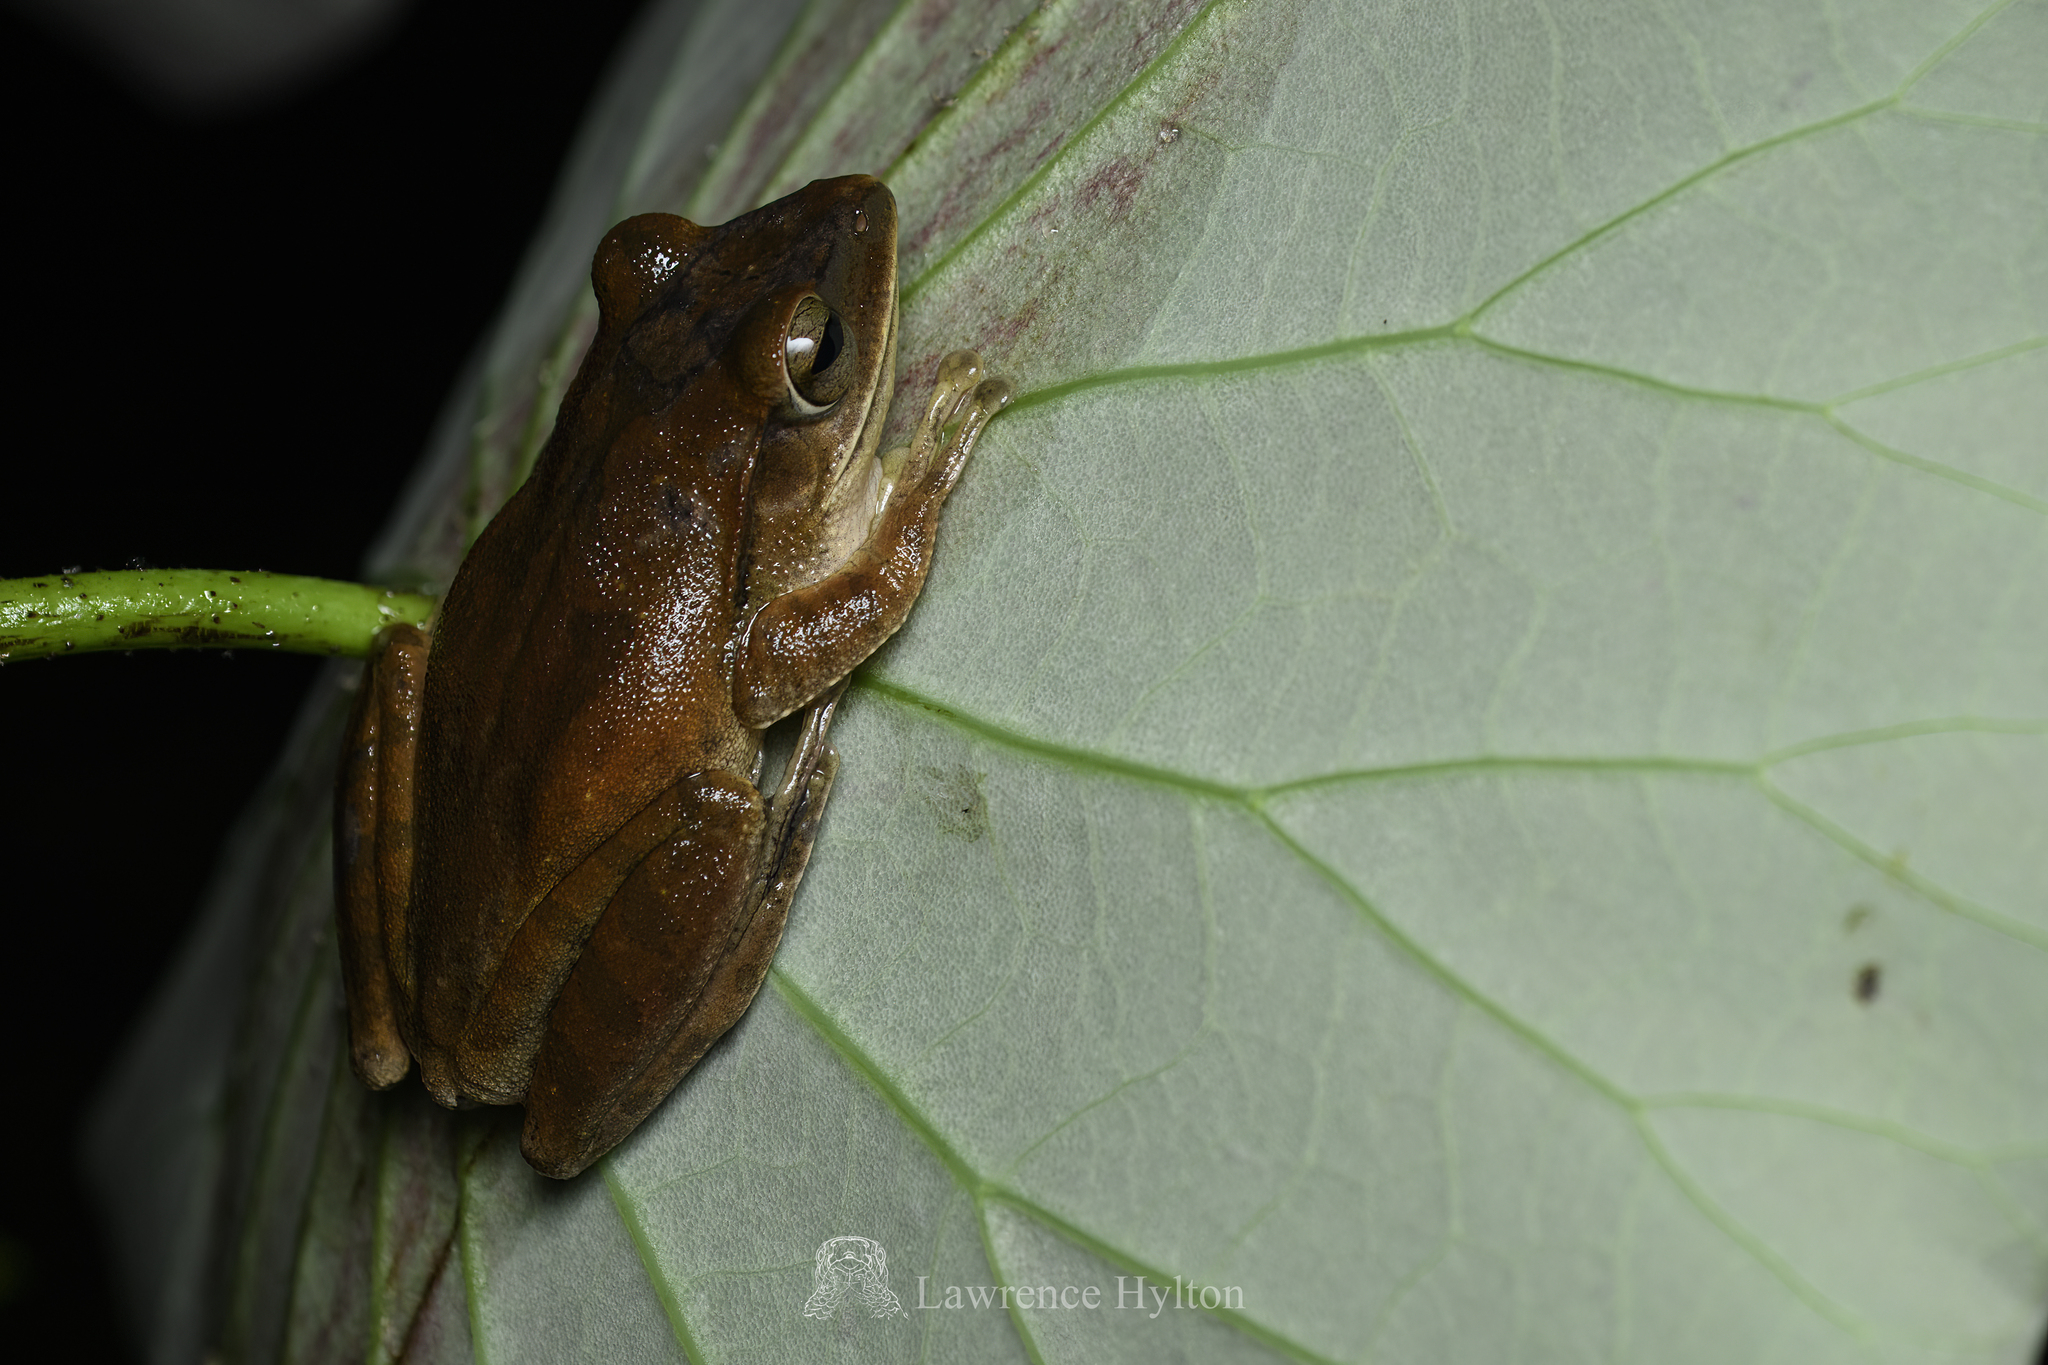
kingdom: Animalia
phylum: Chordata
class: Amphibia
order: Anura
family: Rhacophoridae
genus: Polypedates
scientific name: Polypedates megacephalus
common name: Hong kong whipping frog
